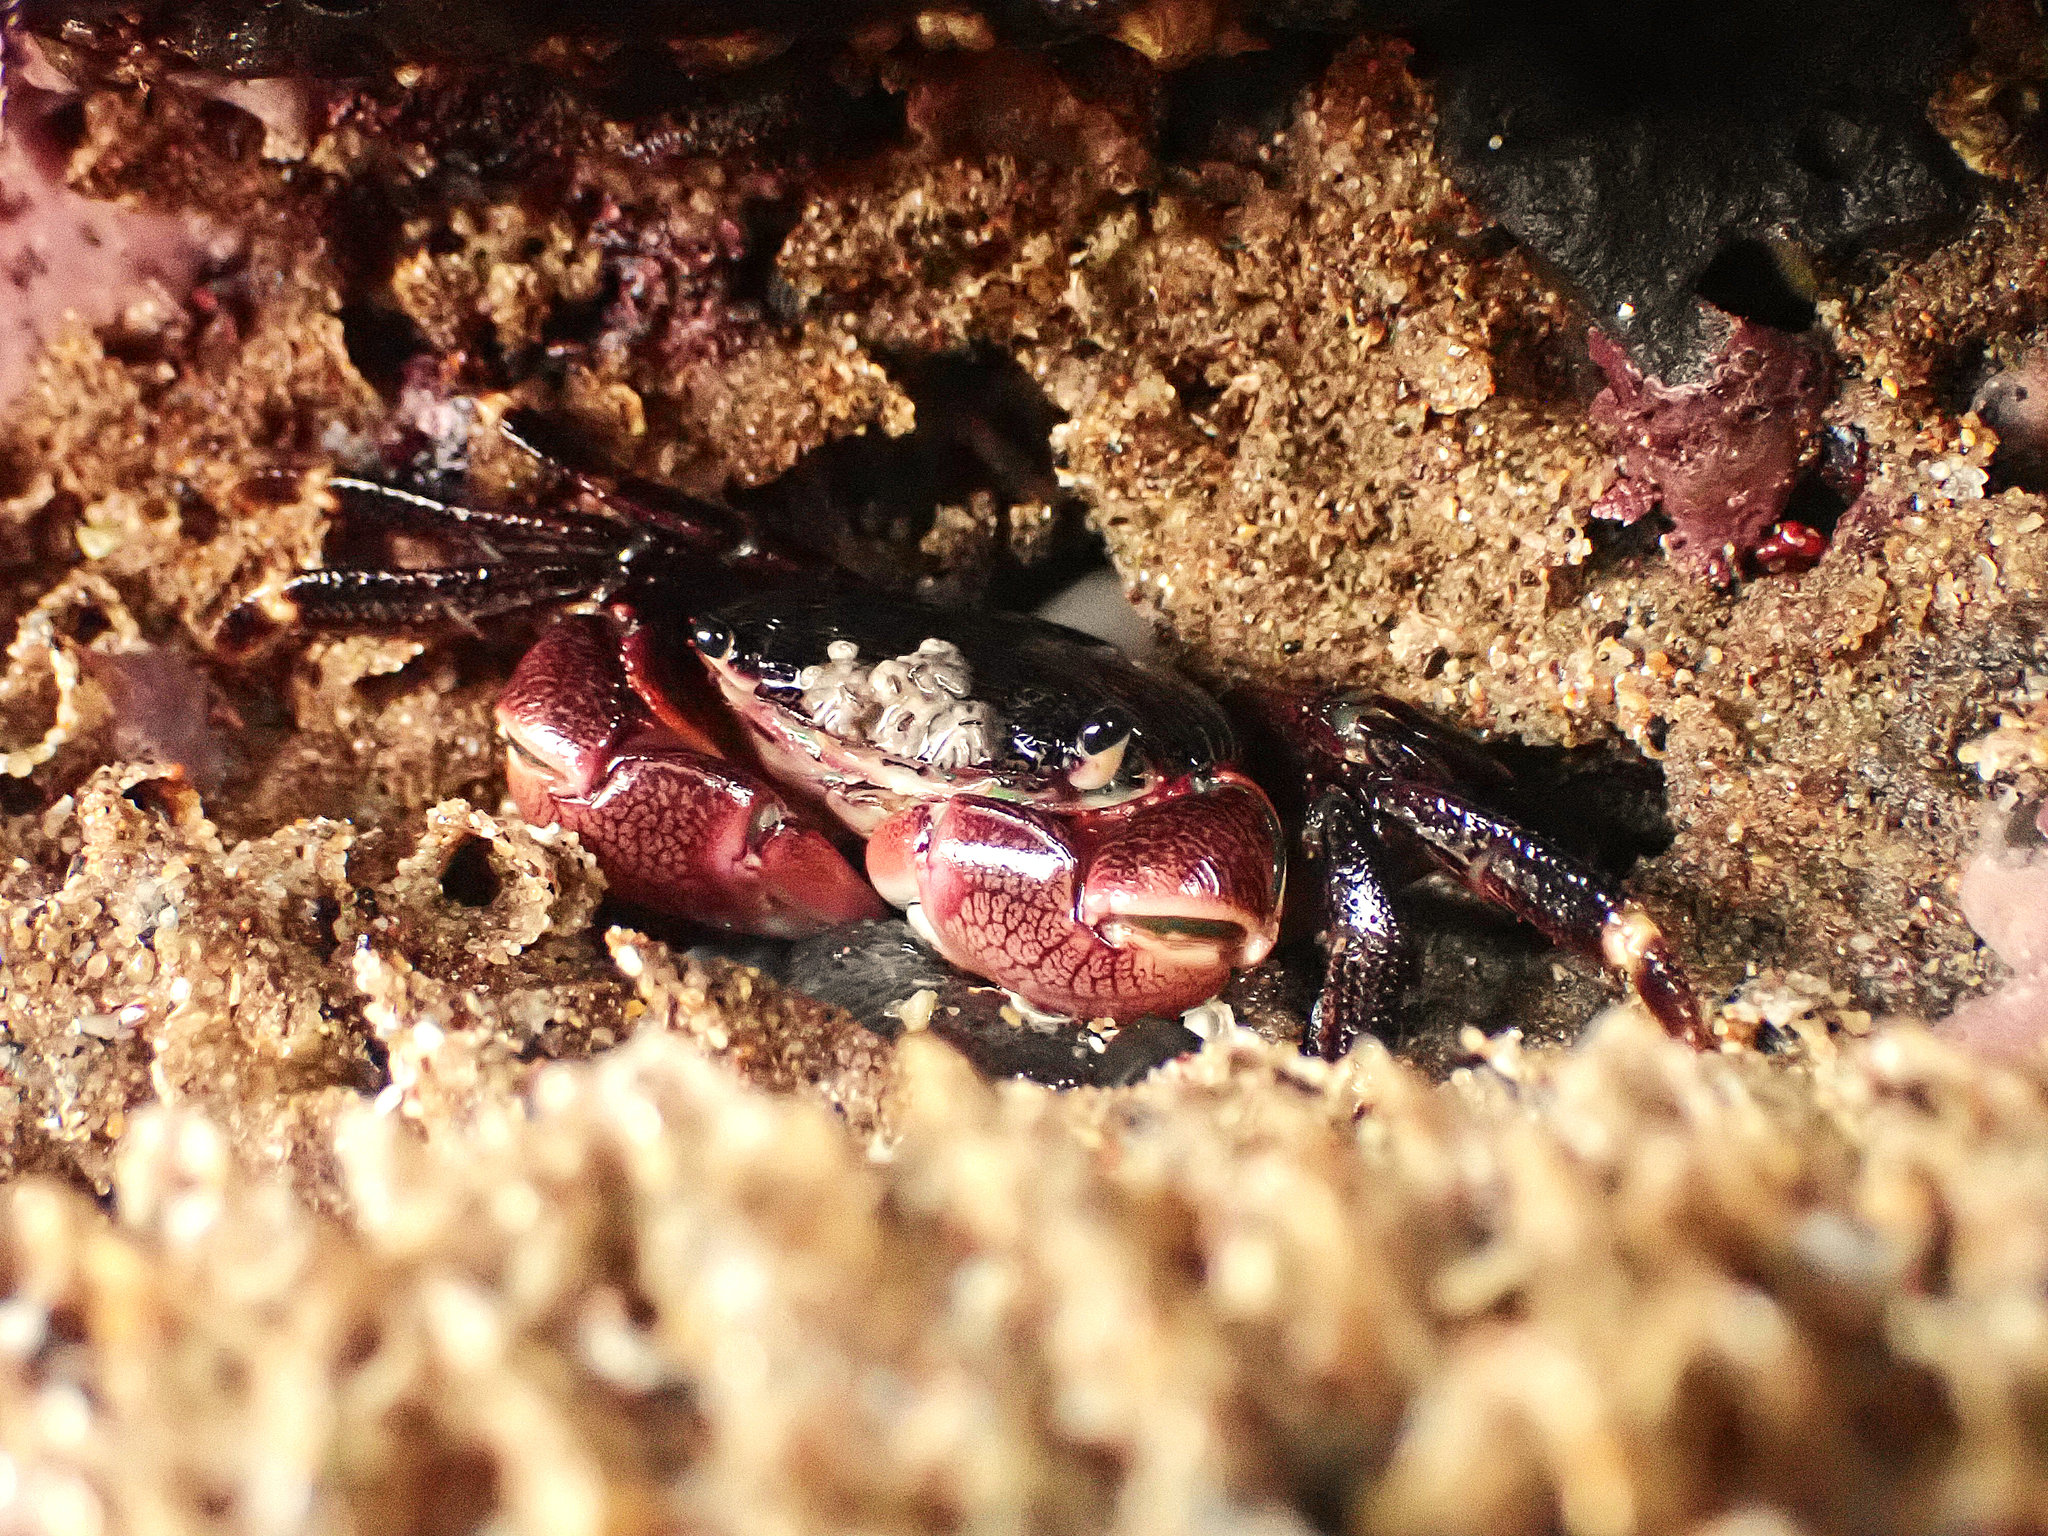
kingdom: Animalia
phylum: Arthropoda
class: Malacostraca
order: Decapoda
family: Grapsidae
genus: Pachygrapsus
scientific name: Pachygrapsus crassipes
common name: Striped shore crab
